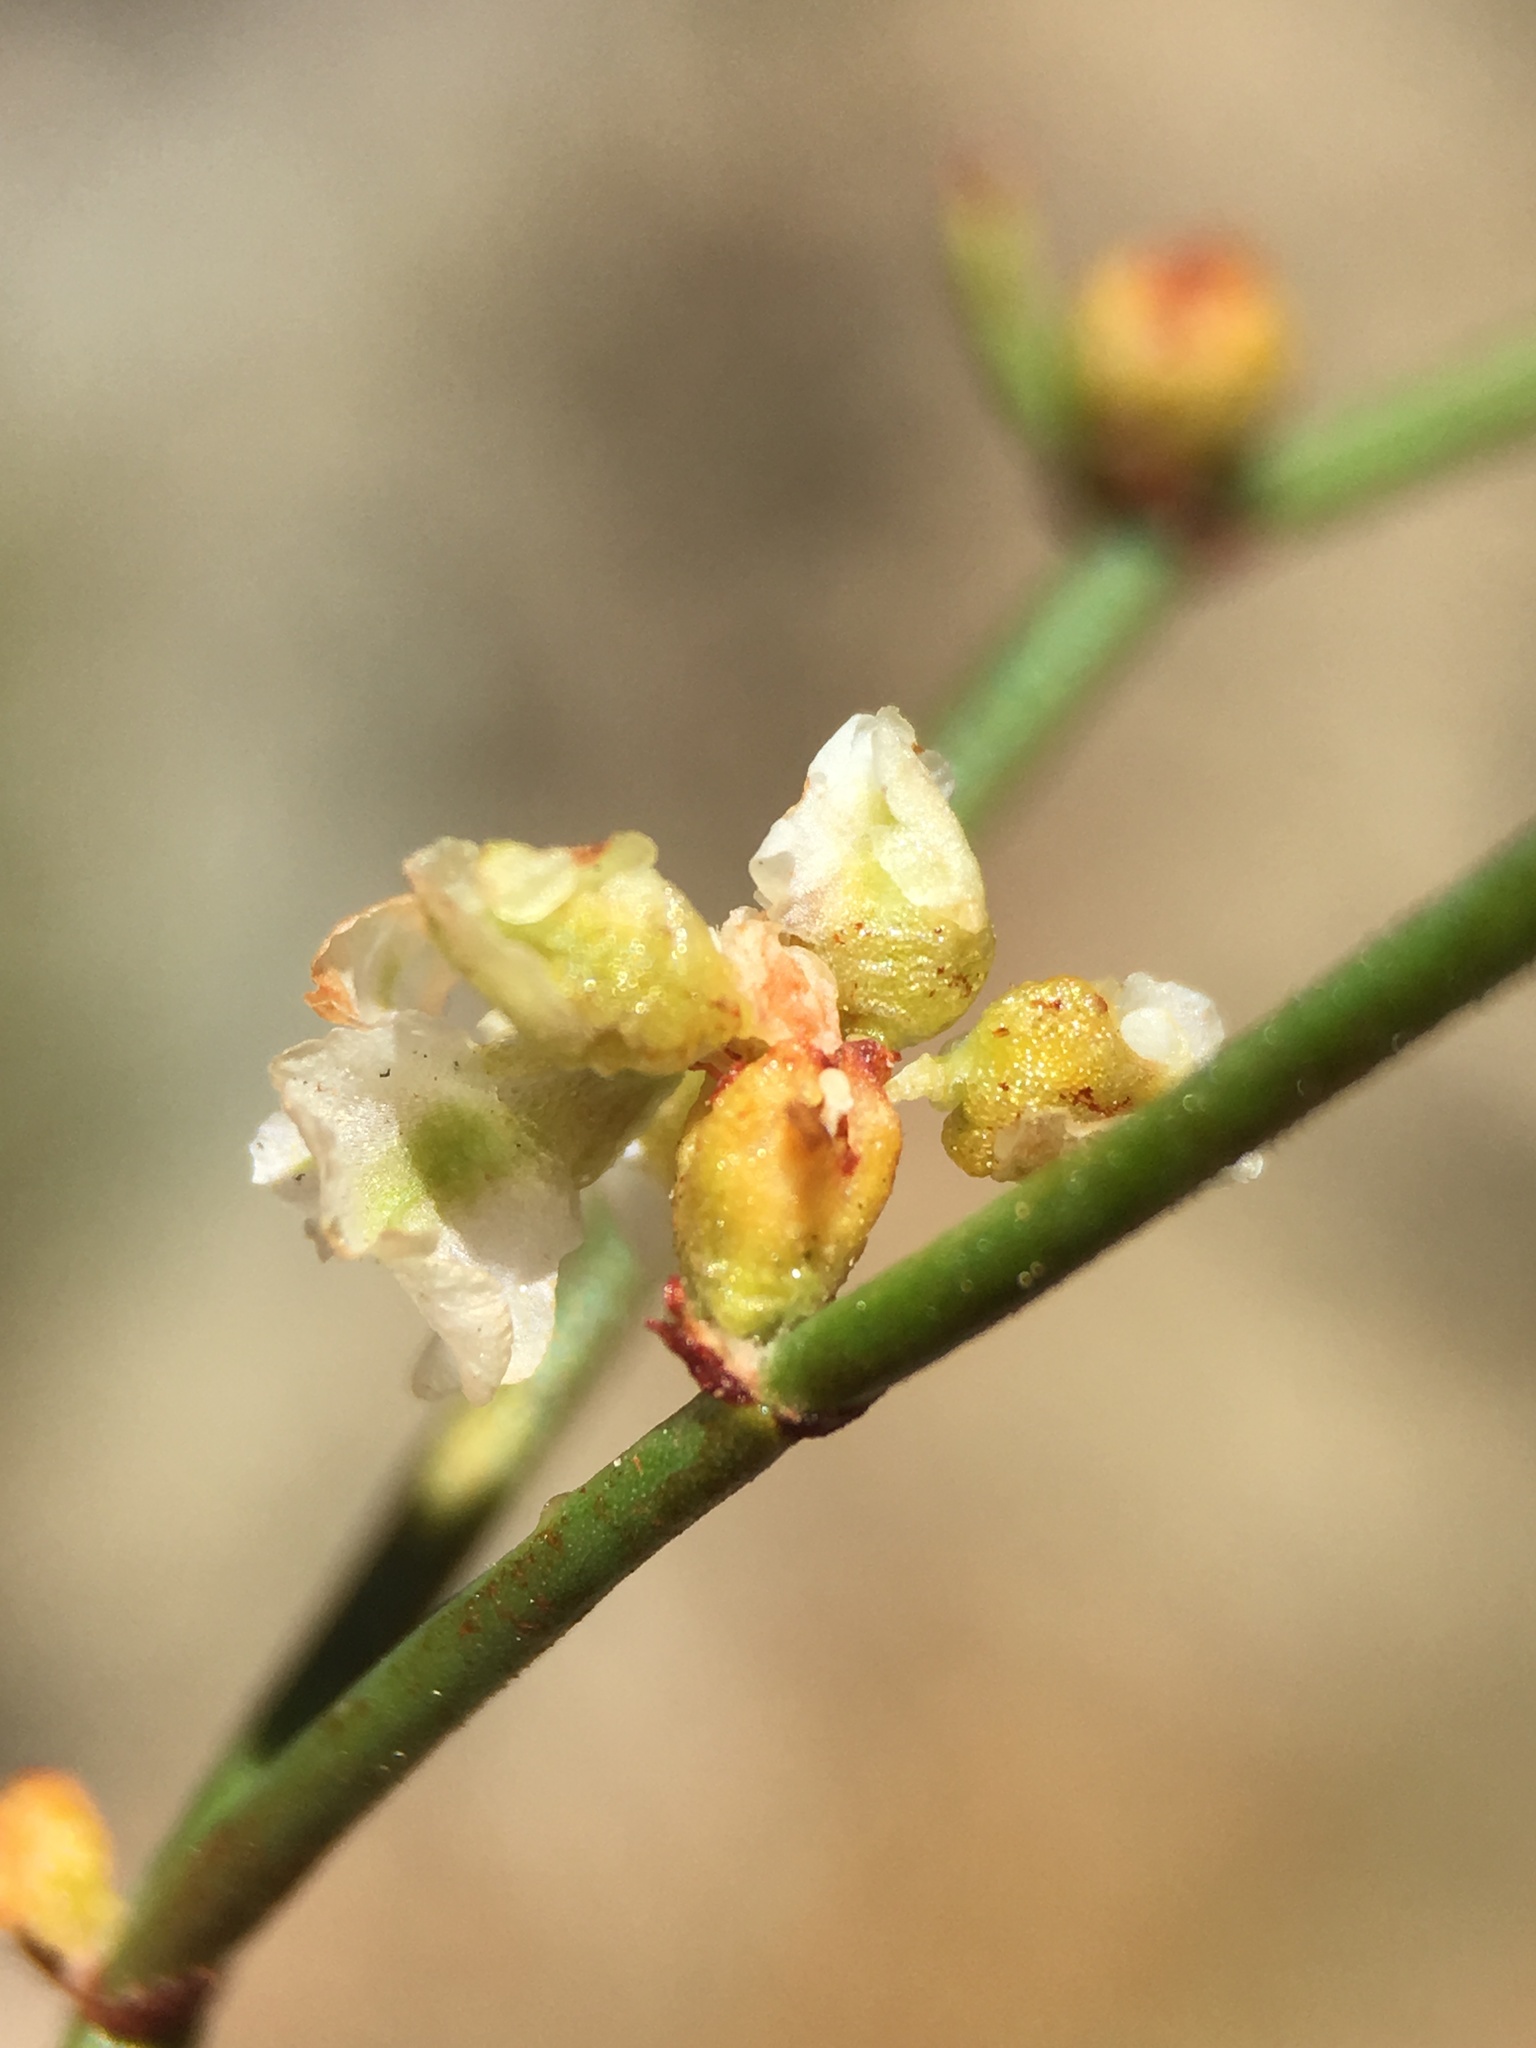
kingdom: Plantae
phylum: Tracheophyta
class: Magnoliopsida
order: Caryophyllales
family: Polygonaceae
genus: Eriogonum
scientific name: Eriogonum heermannii
